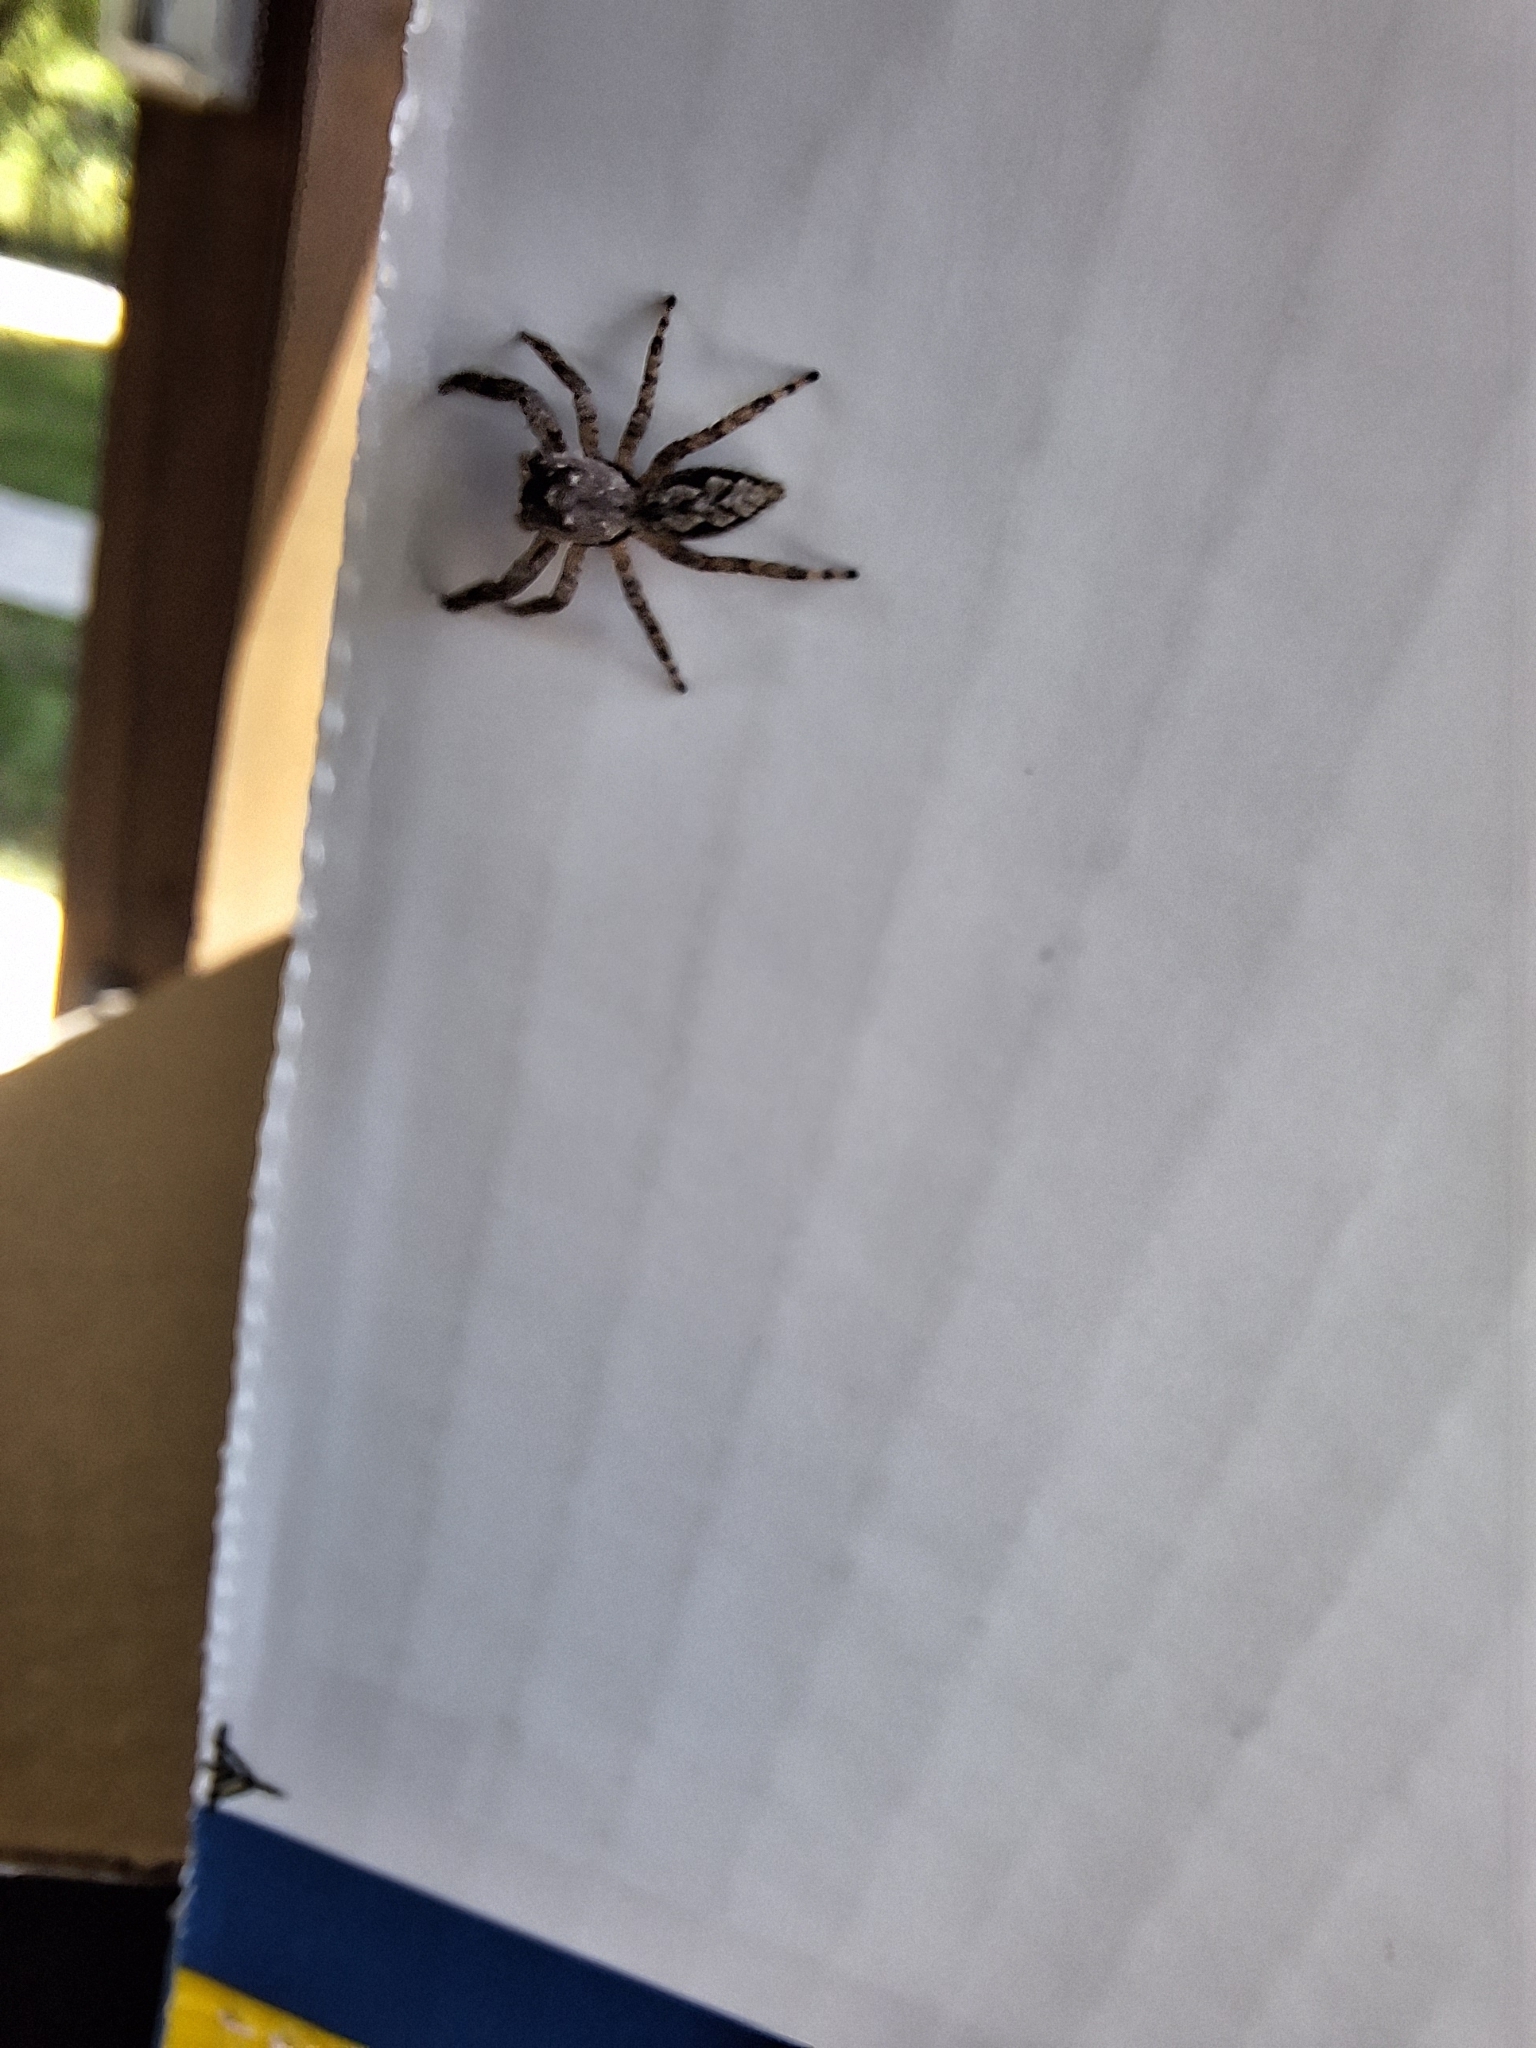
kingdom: Animalia
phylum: Arthropoda
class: Arachnida
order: Araneae
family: Salticidae
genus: Platycryptus
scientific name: Platycryptus undatus
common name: Tan jumping spider
